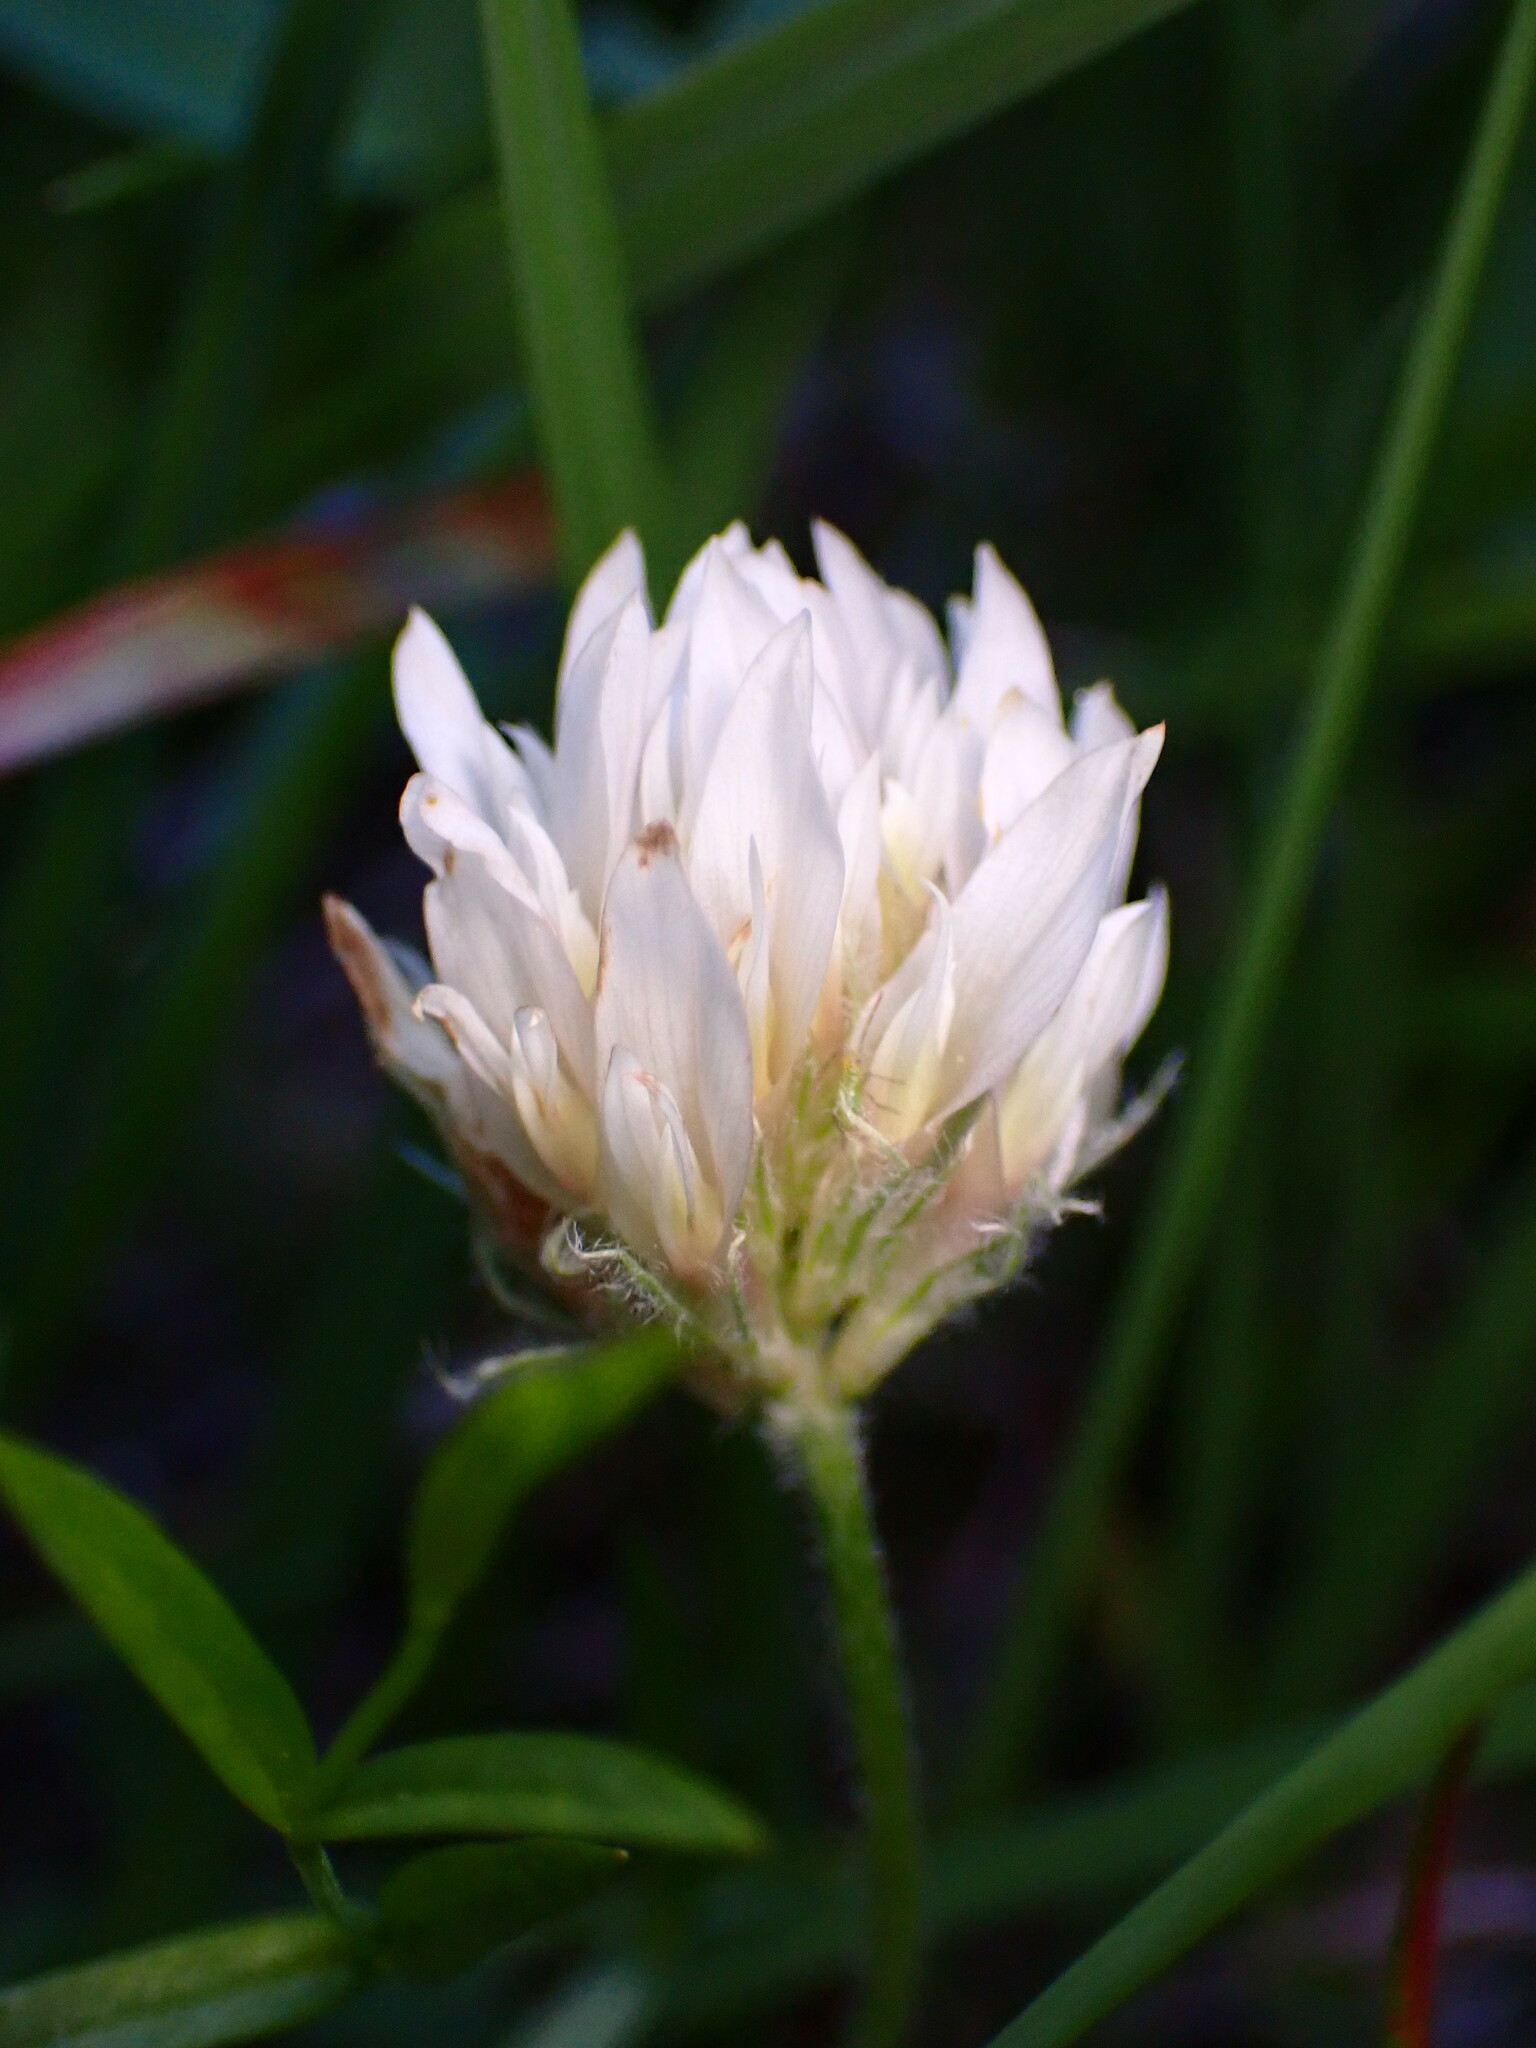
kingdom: Plantae
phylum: Tracheophyta
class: Magnoliopsida
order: Fabales
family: Fabaceae
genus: Trifolium
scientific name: Trifolium longipes
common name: Long-stalk clover
